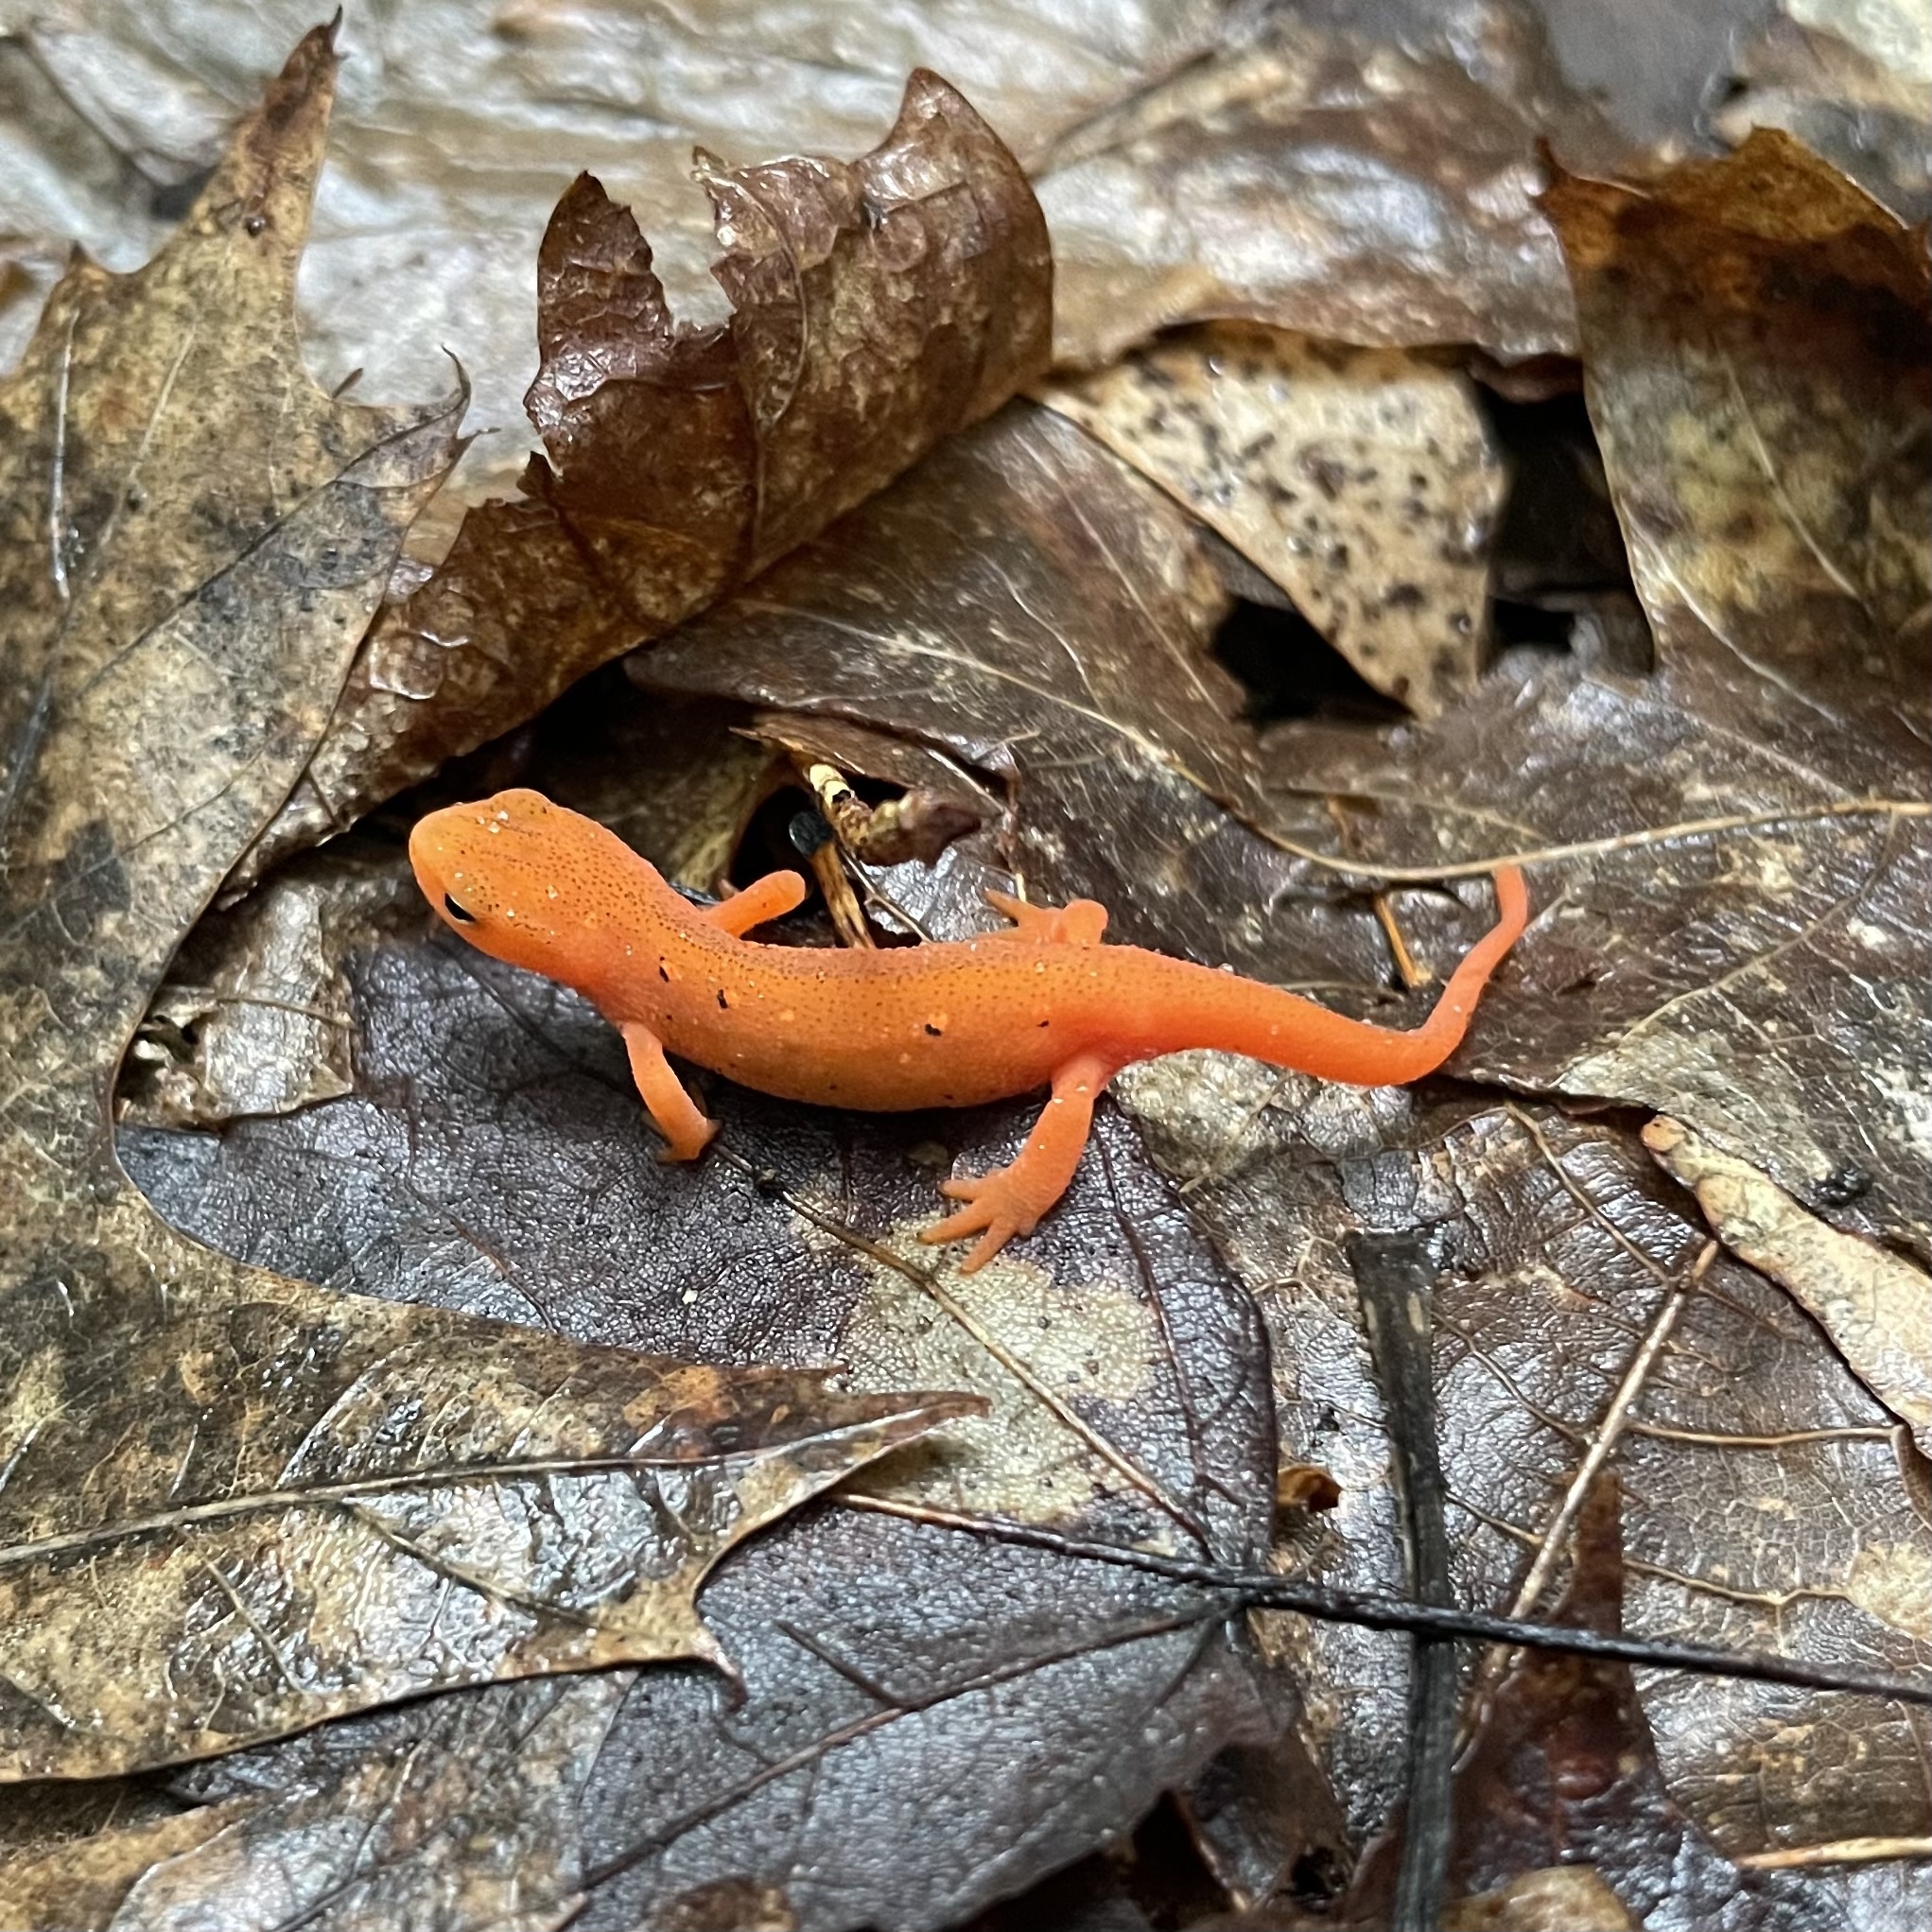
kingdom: Animalia
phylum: Chordata
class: Amphibia
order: Caudata
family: Salamandridae
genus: Notophthalmus
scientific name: Notophthalmus viridescens
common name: Eastern newt
